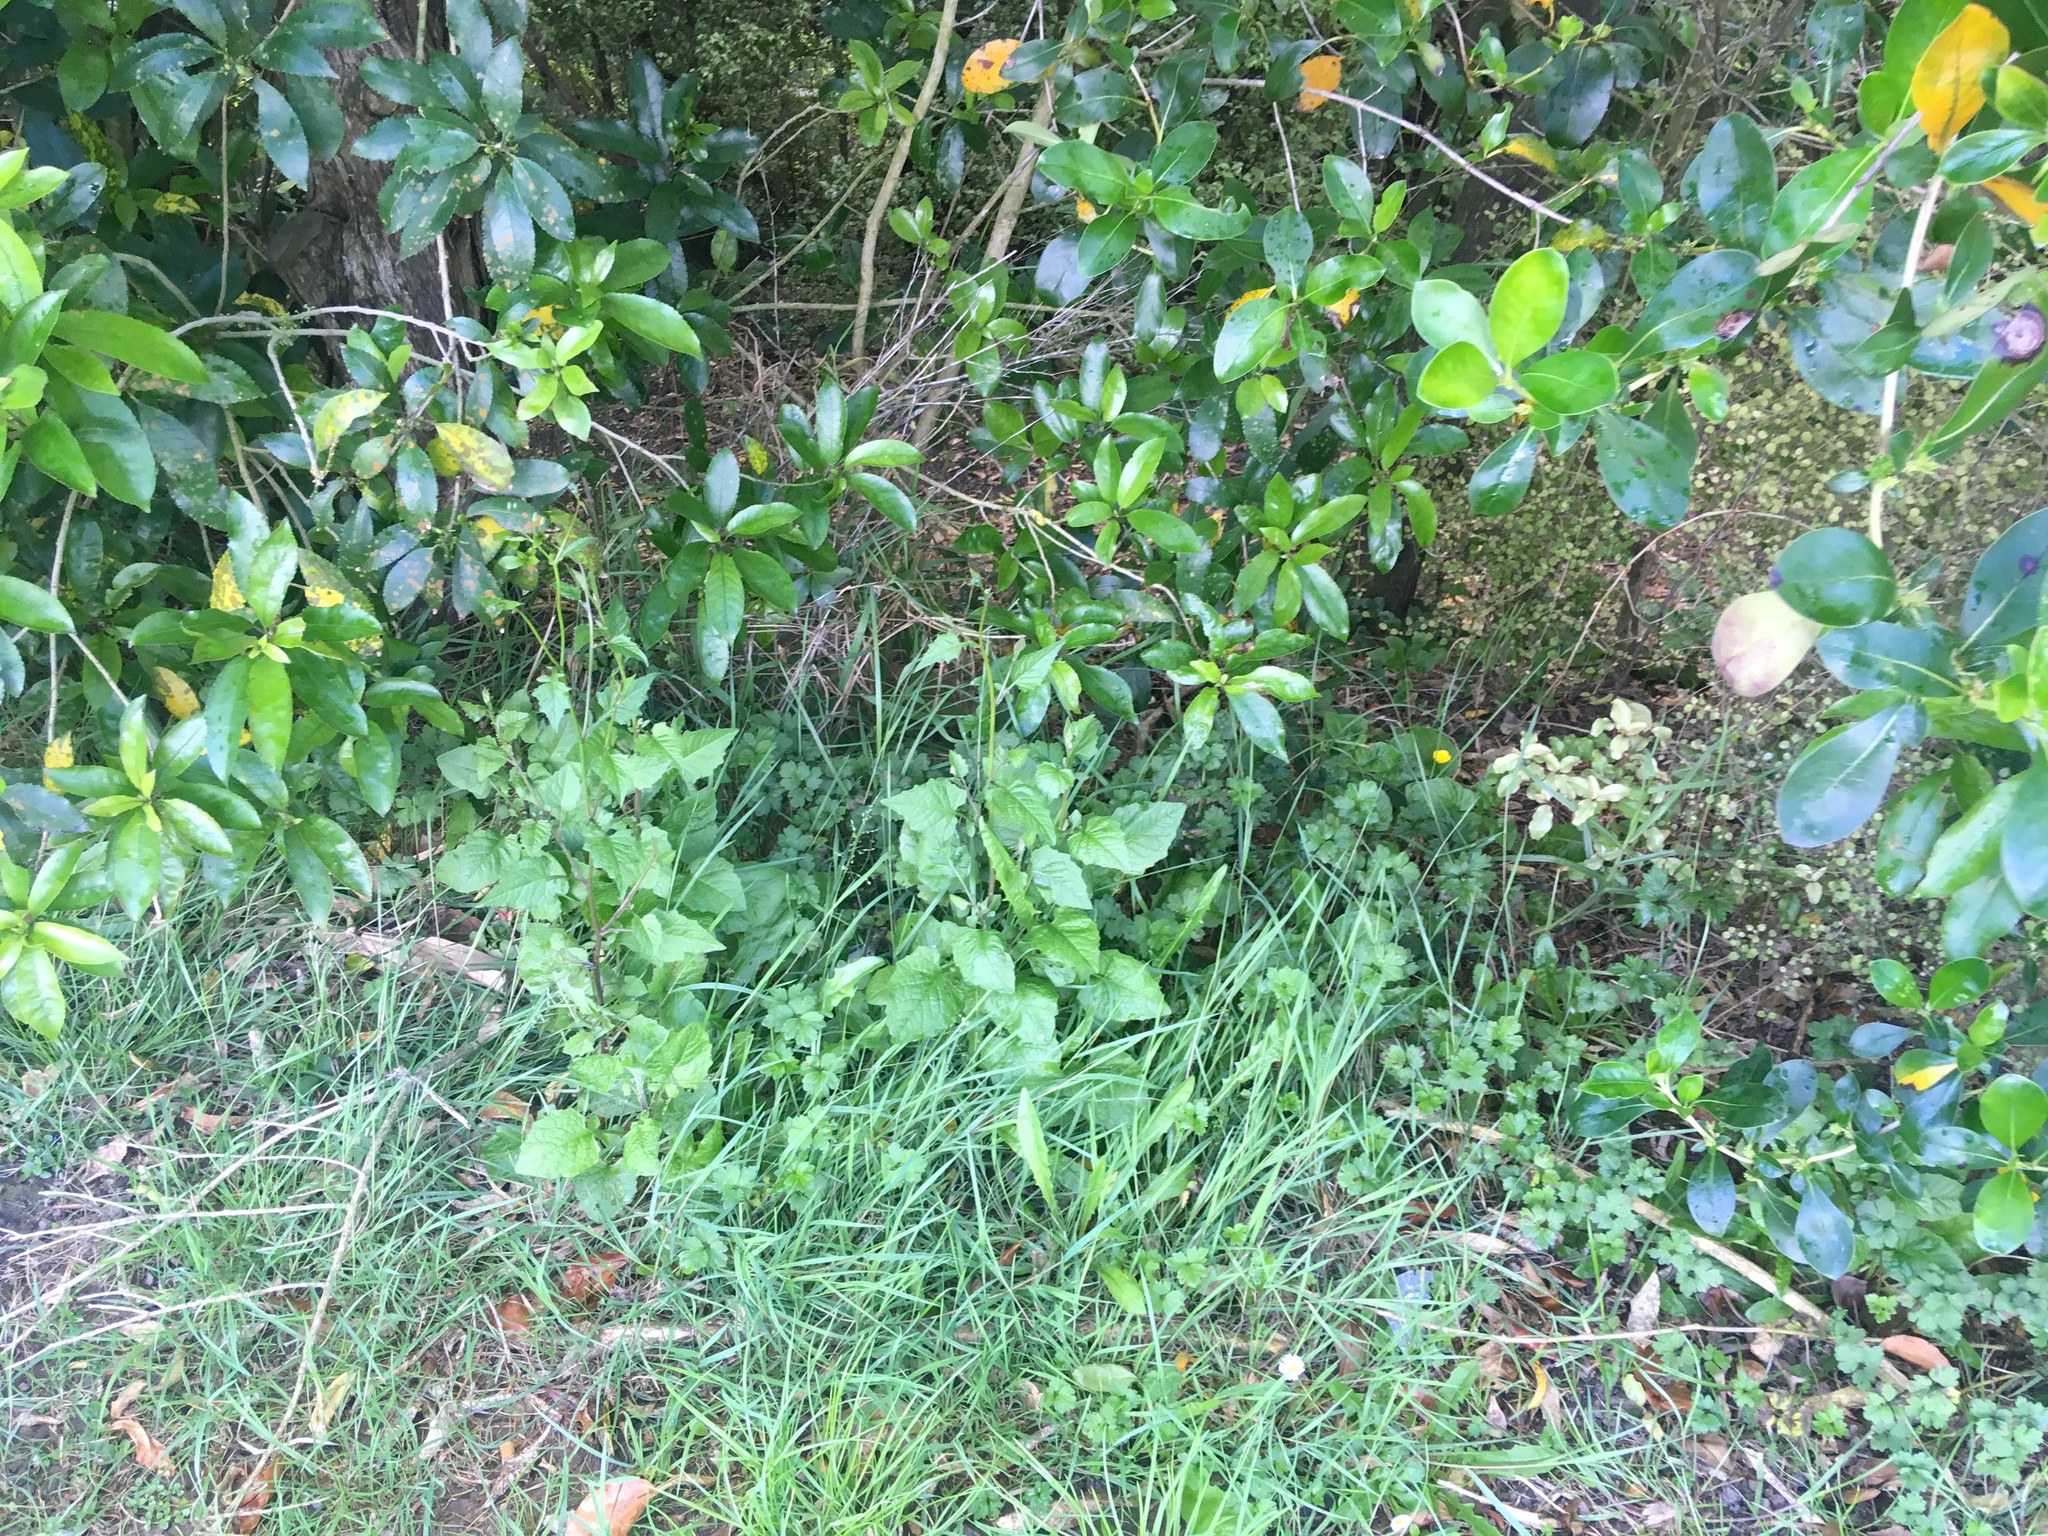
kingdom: Plantae
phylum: Tracheophyta
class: Magnoliopsida
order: Asterales
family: Asteraceae
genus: Lapsana
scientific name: Lapsana communis
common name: Nipplewort
